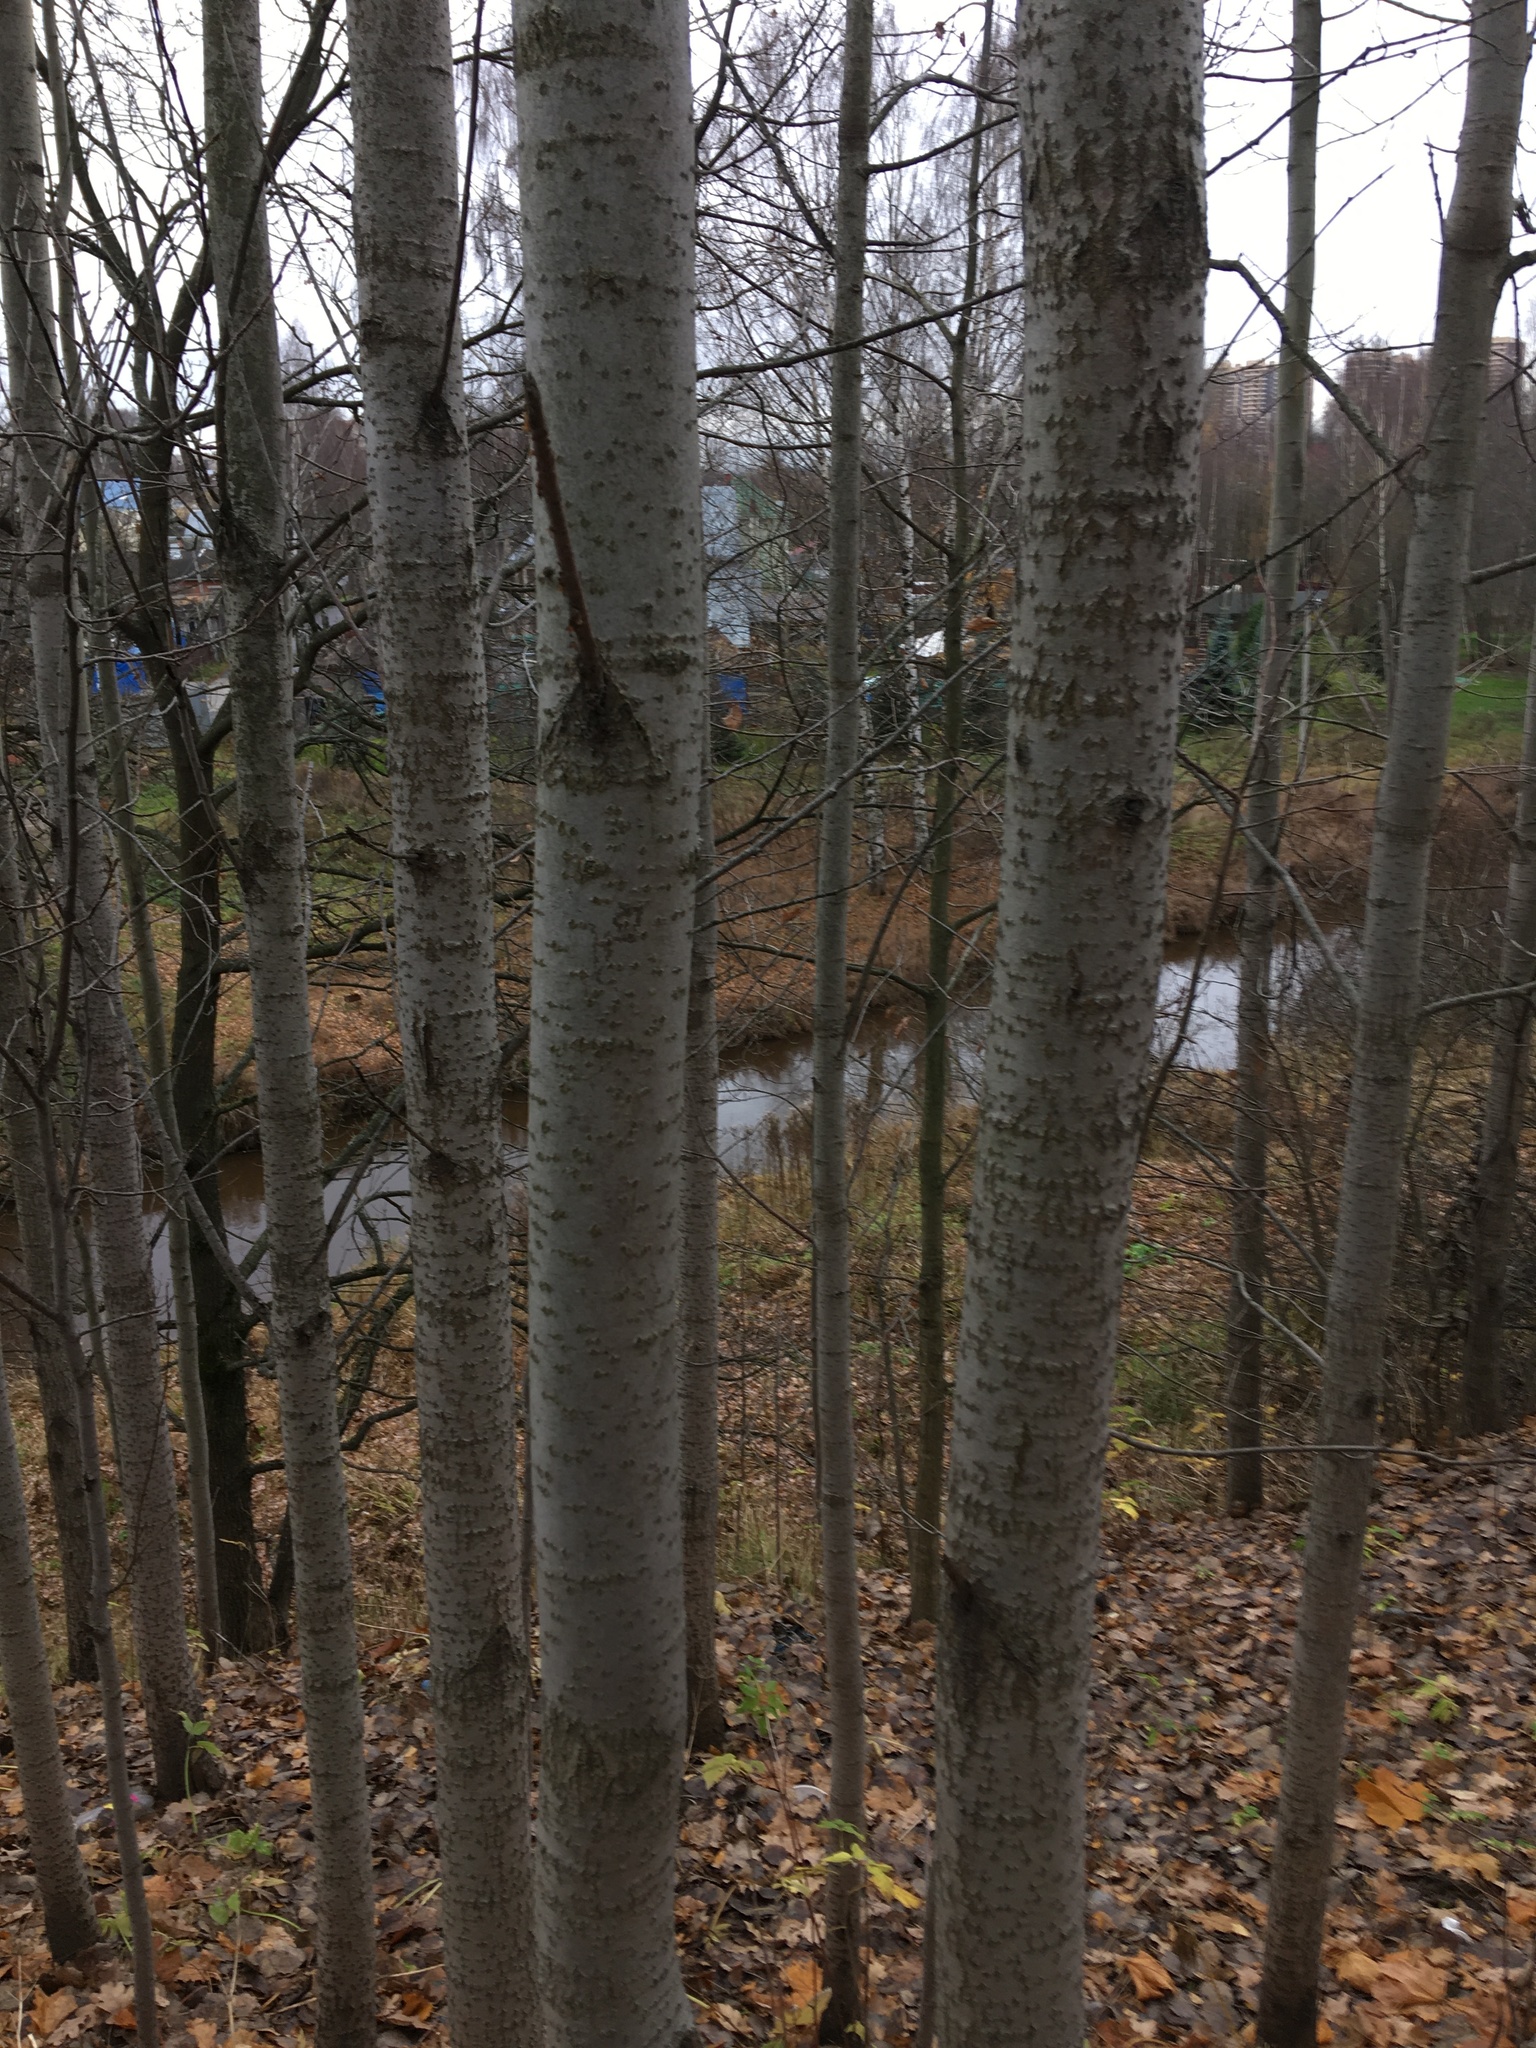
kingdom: Plantae
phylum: Tracheophyta
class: Magnoliopsida
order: Malpighiales
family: Salicaceae
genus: Populus
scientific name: Populus tremula
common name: European aspen
